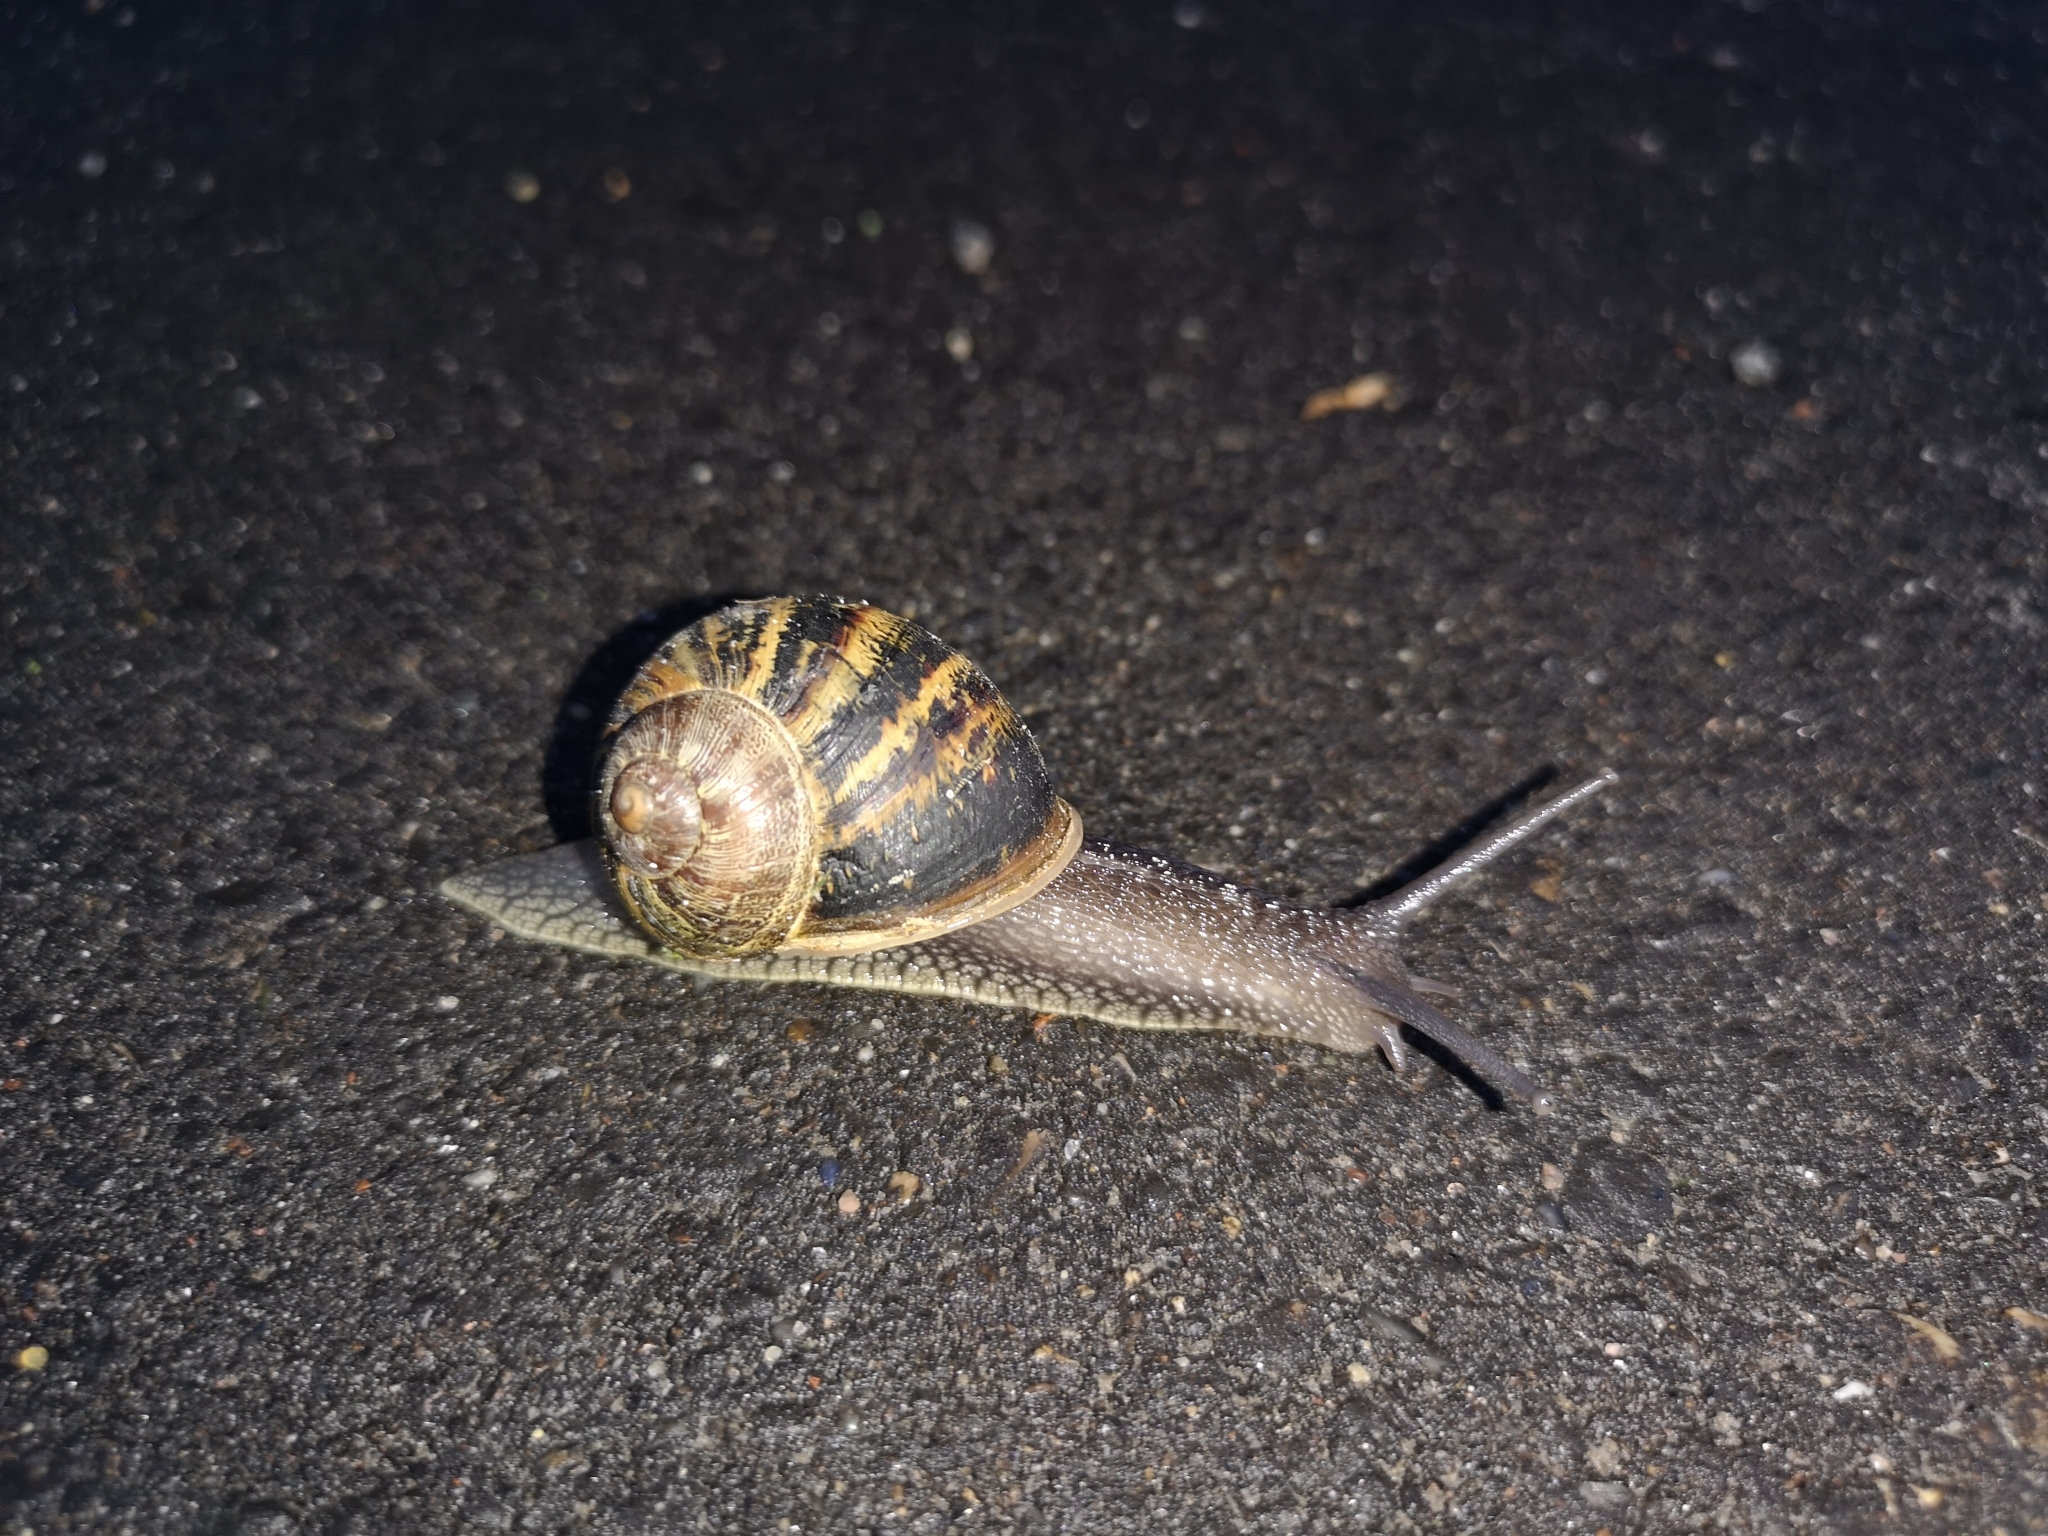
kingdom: Animalia
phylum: Mollusca
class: Gastropoda
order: Stylommatophora
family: Helicidae
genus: Cornu
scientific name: Cornu aspersum
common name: Brown garden snail
